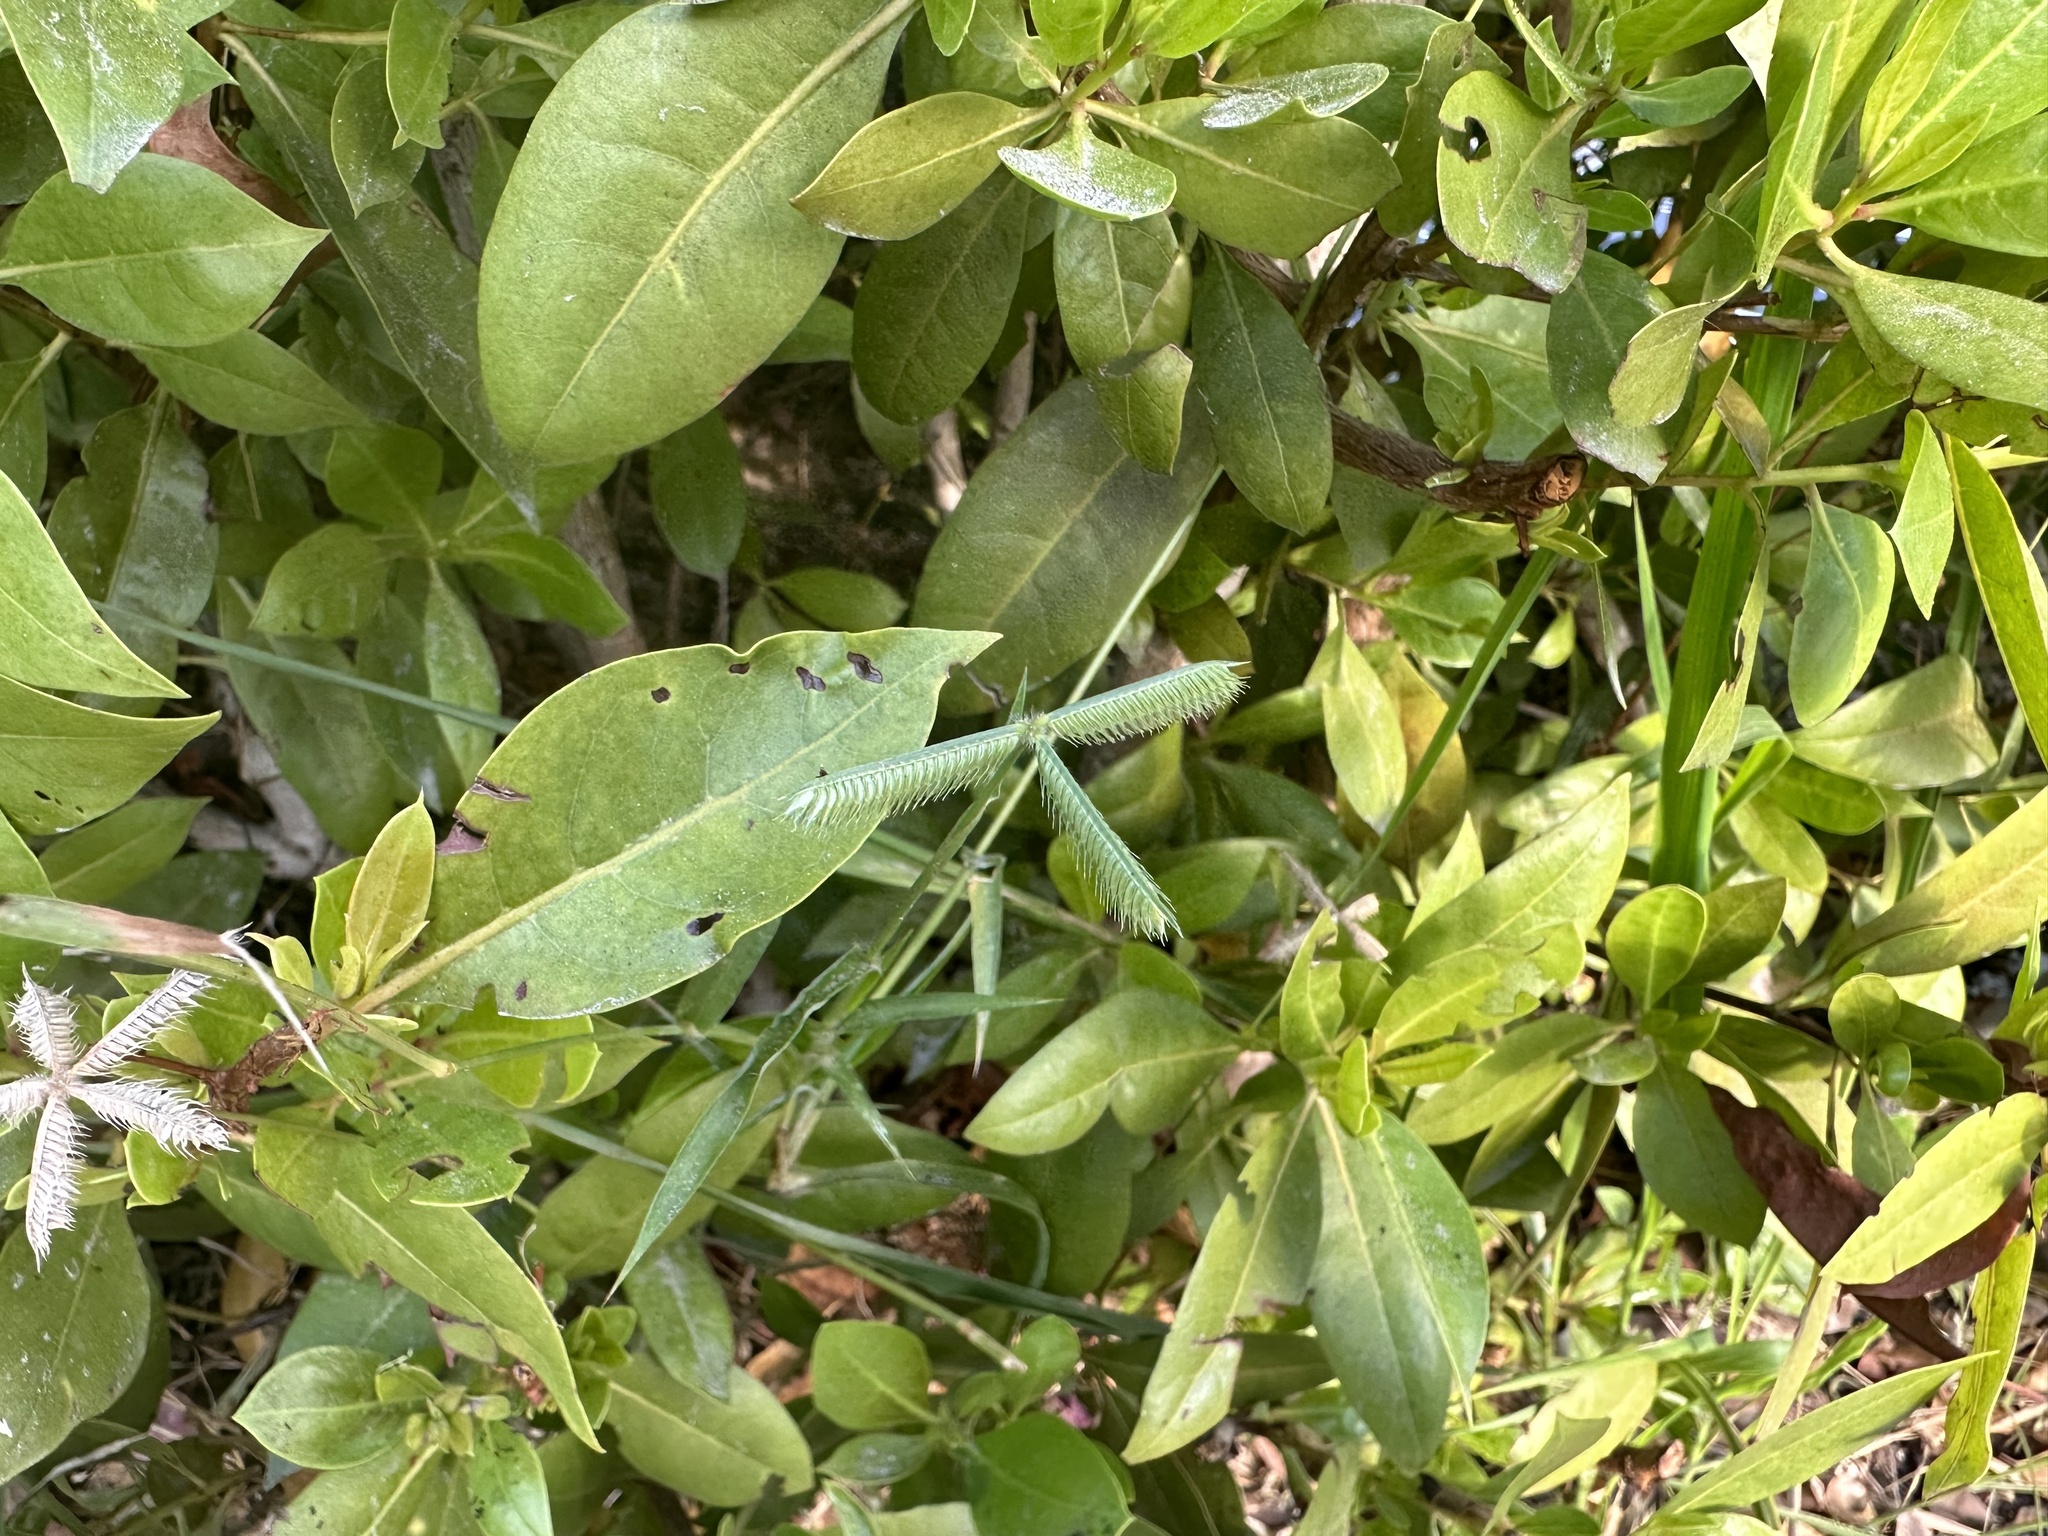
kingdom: Plantae
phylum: Tracheophyta
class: Liliopsida
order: Poales
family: Poaceae
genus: Dactyloctenium
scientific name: Dactyloctenium aegyptium
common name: Egyptian grass
